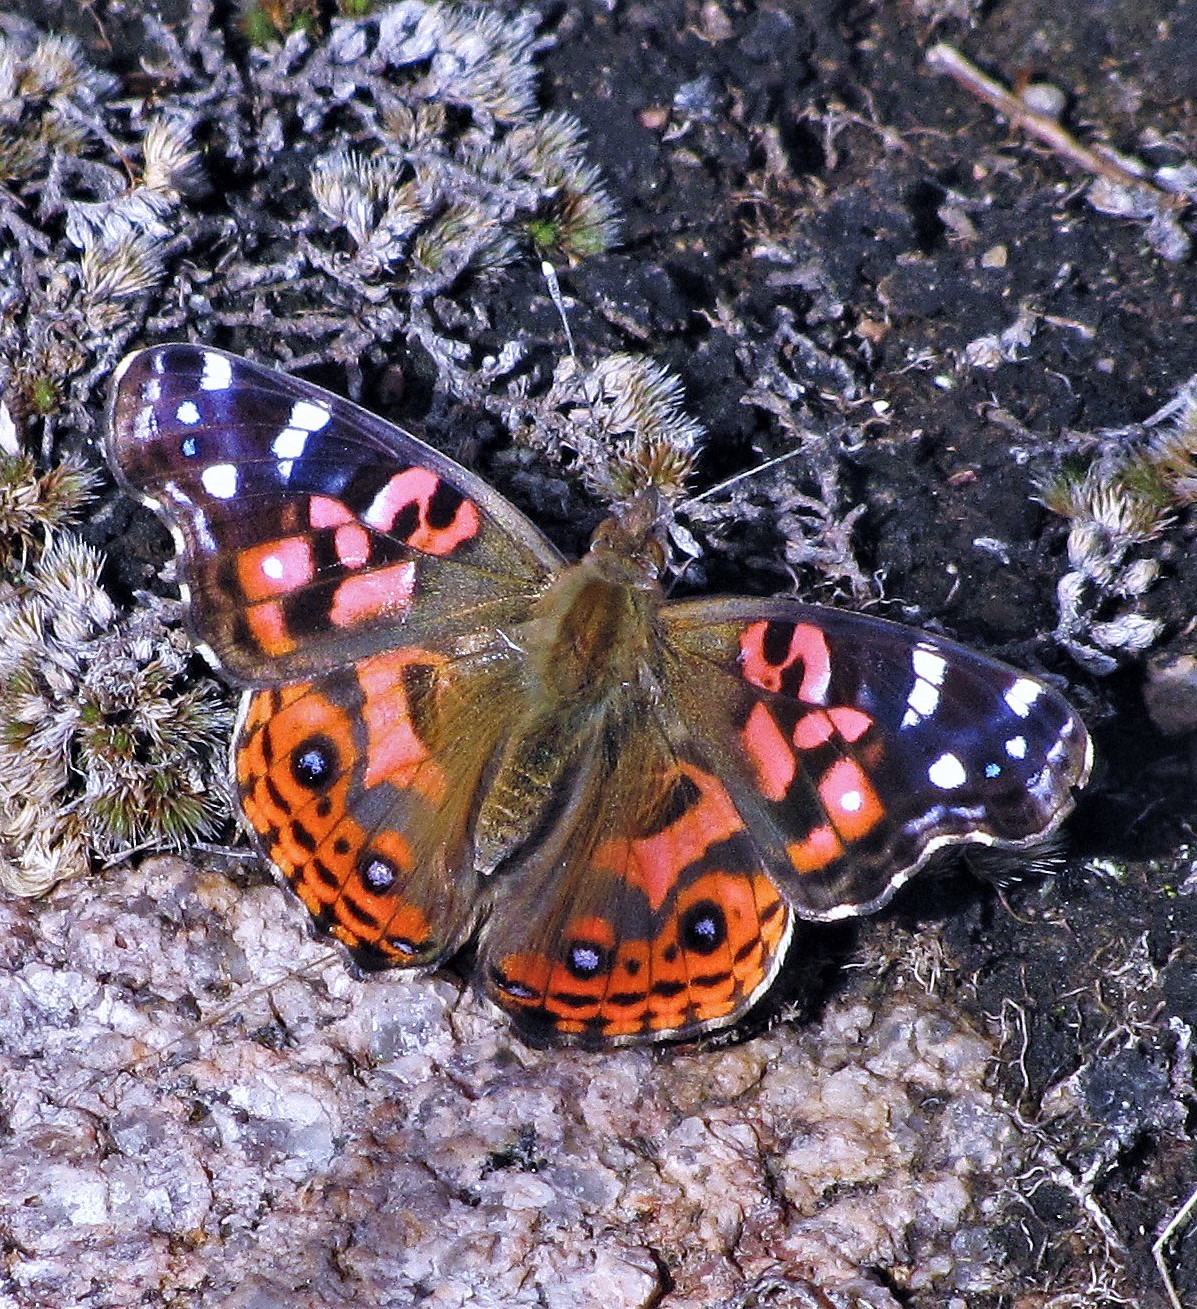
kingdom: Animalia
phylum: Arthropoda
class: Insecta
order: Lepidoptera
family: Nymphalidae
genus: Vanessa
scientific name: Vanessa braziliensis
